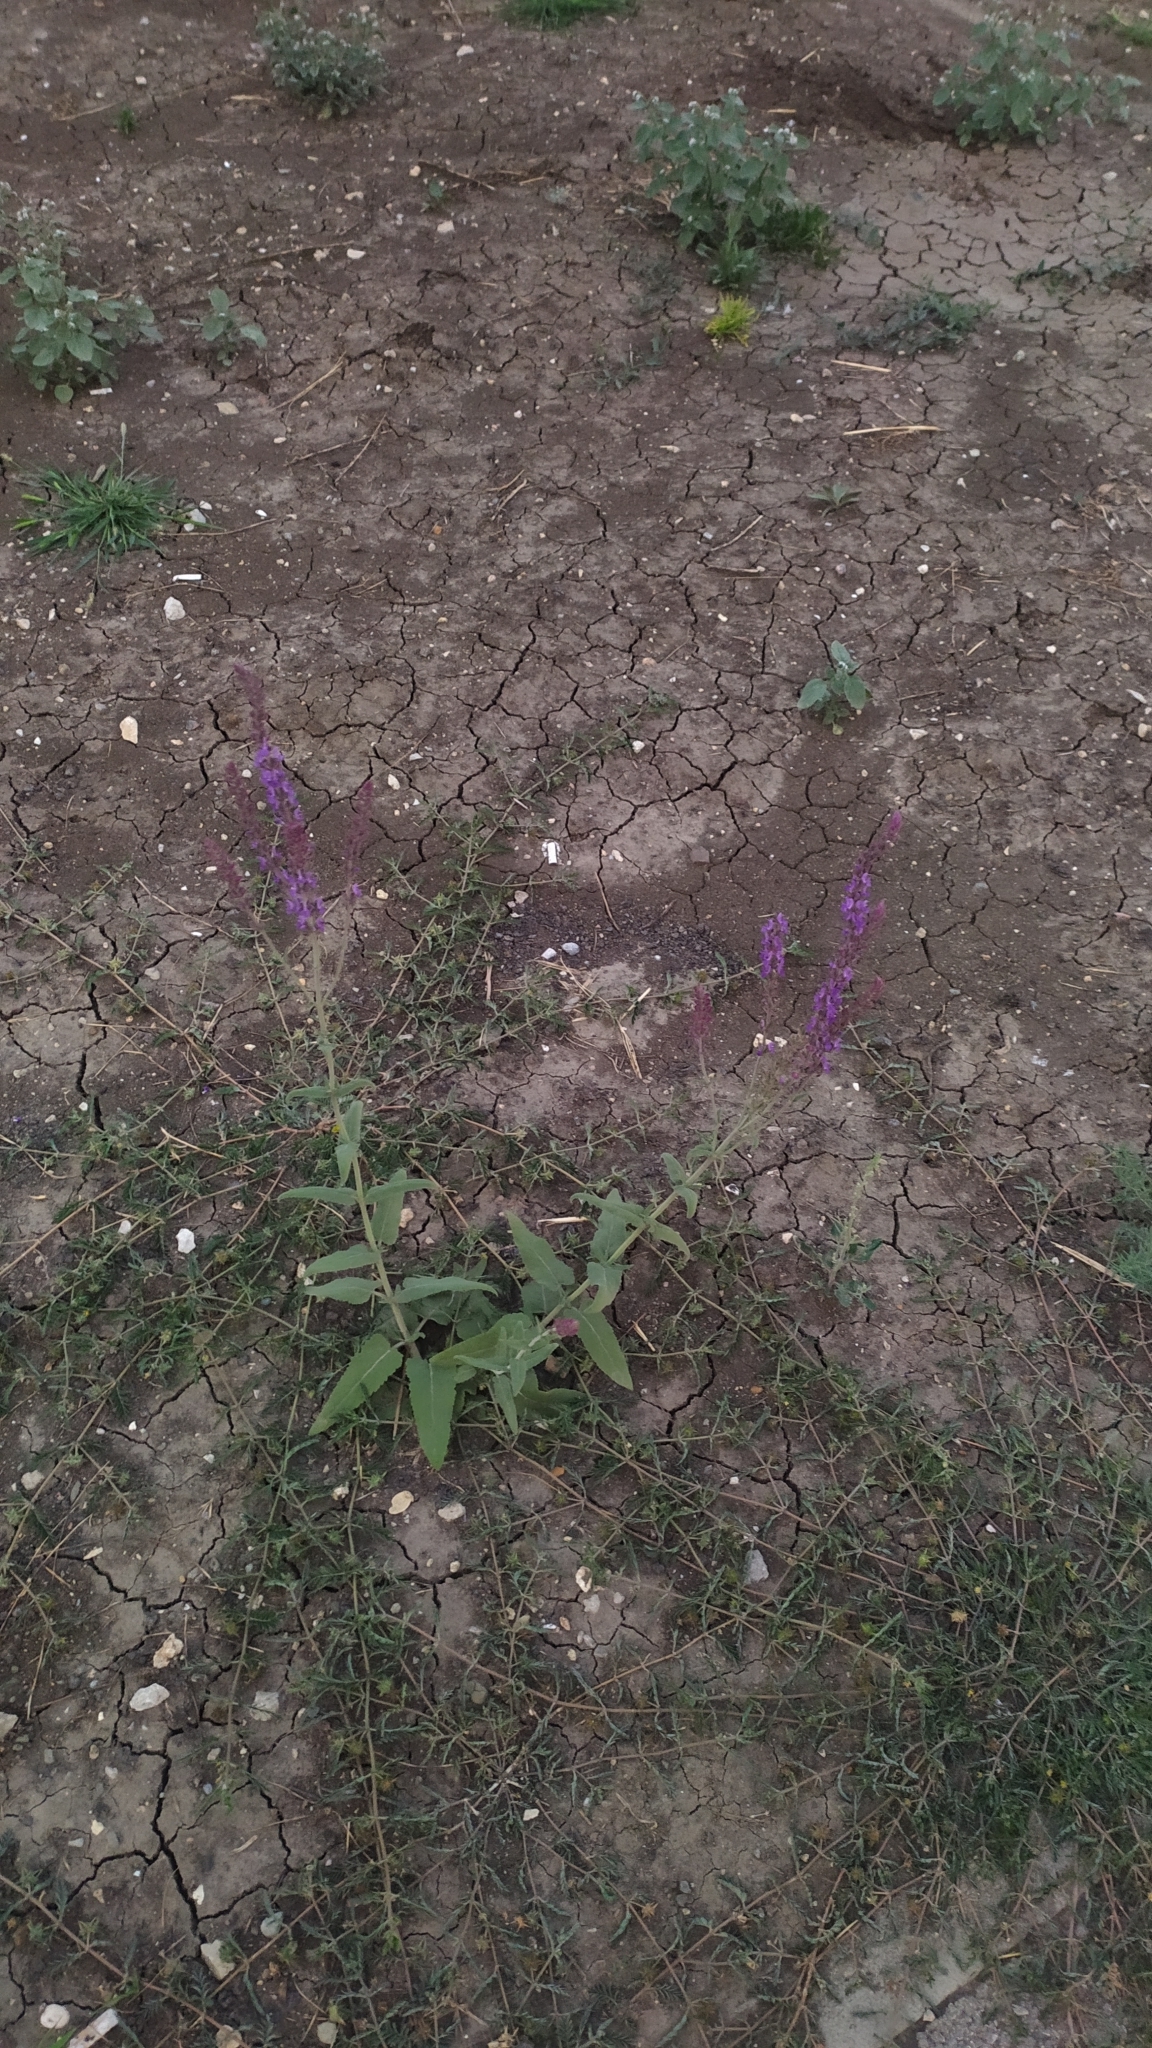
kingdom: Plantae
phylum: Tracheophyta
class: Magnoliopsida
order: Lamiales
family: Lamiaceae
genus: Salvia
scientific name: Salvia nemorosa
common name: Balkan clary
